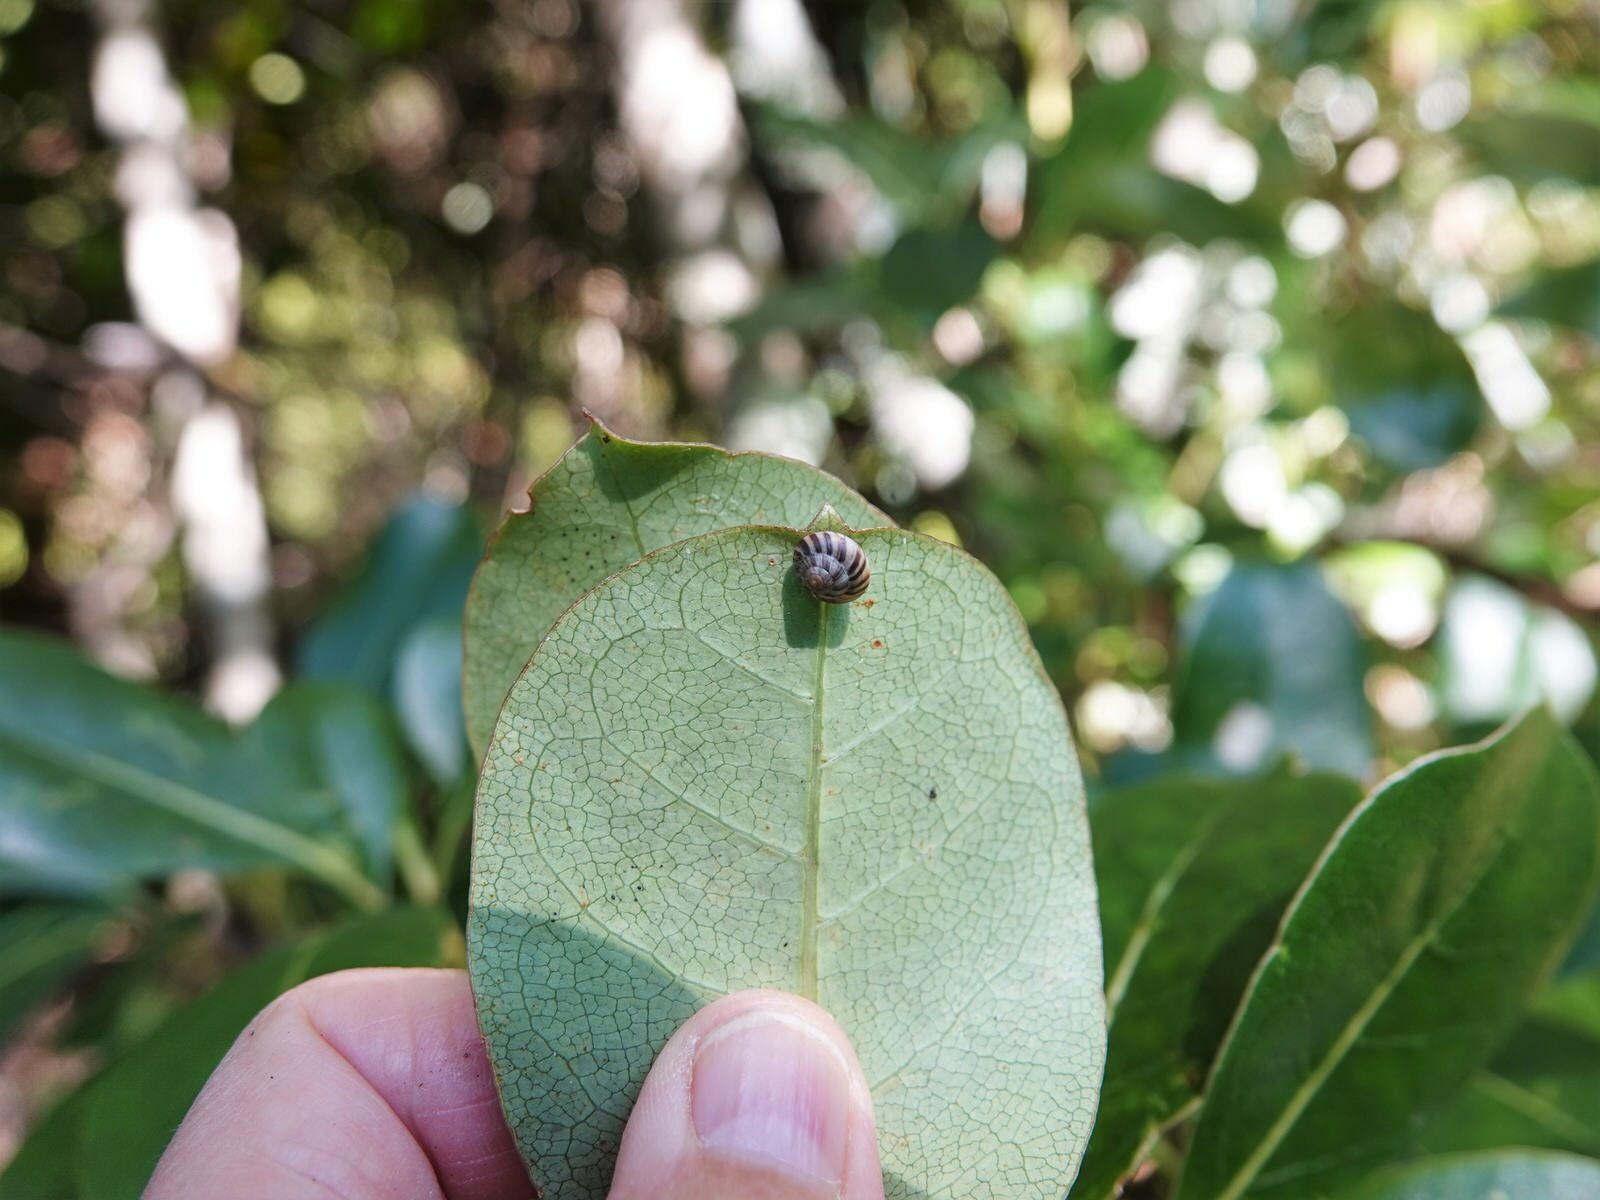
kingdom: Animalia
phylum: Mollusca
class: Gastropoda
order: Stylommatophora
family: Charopidae
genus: Serpho
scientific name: Serpho
